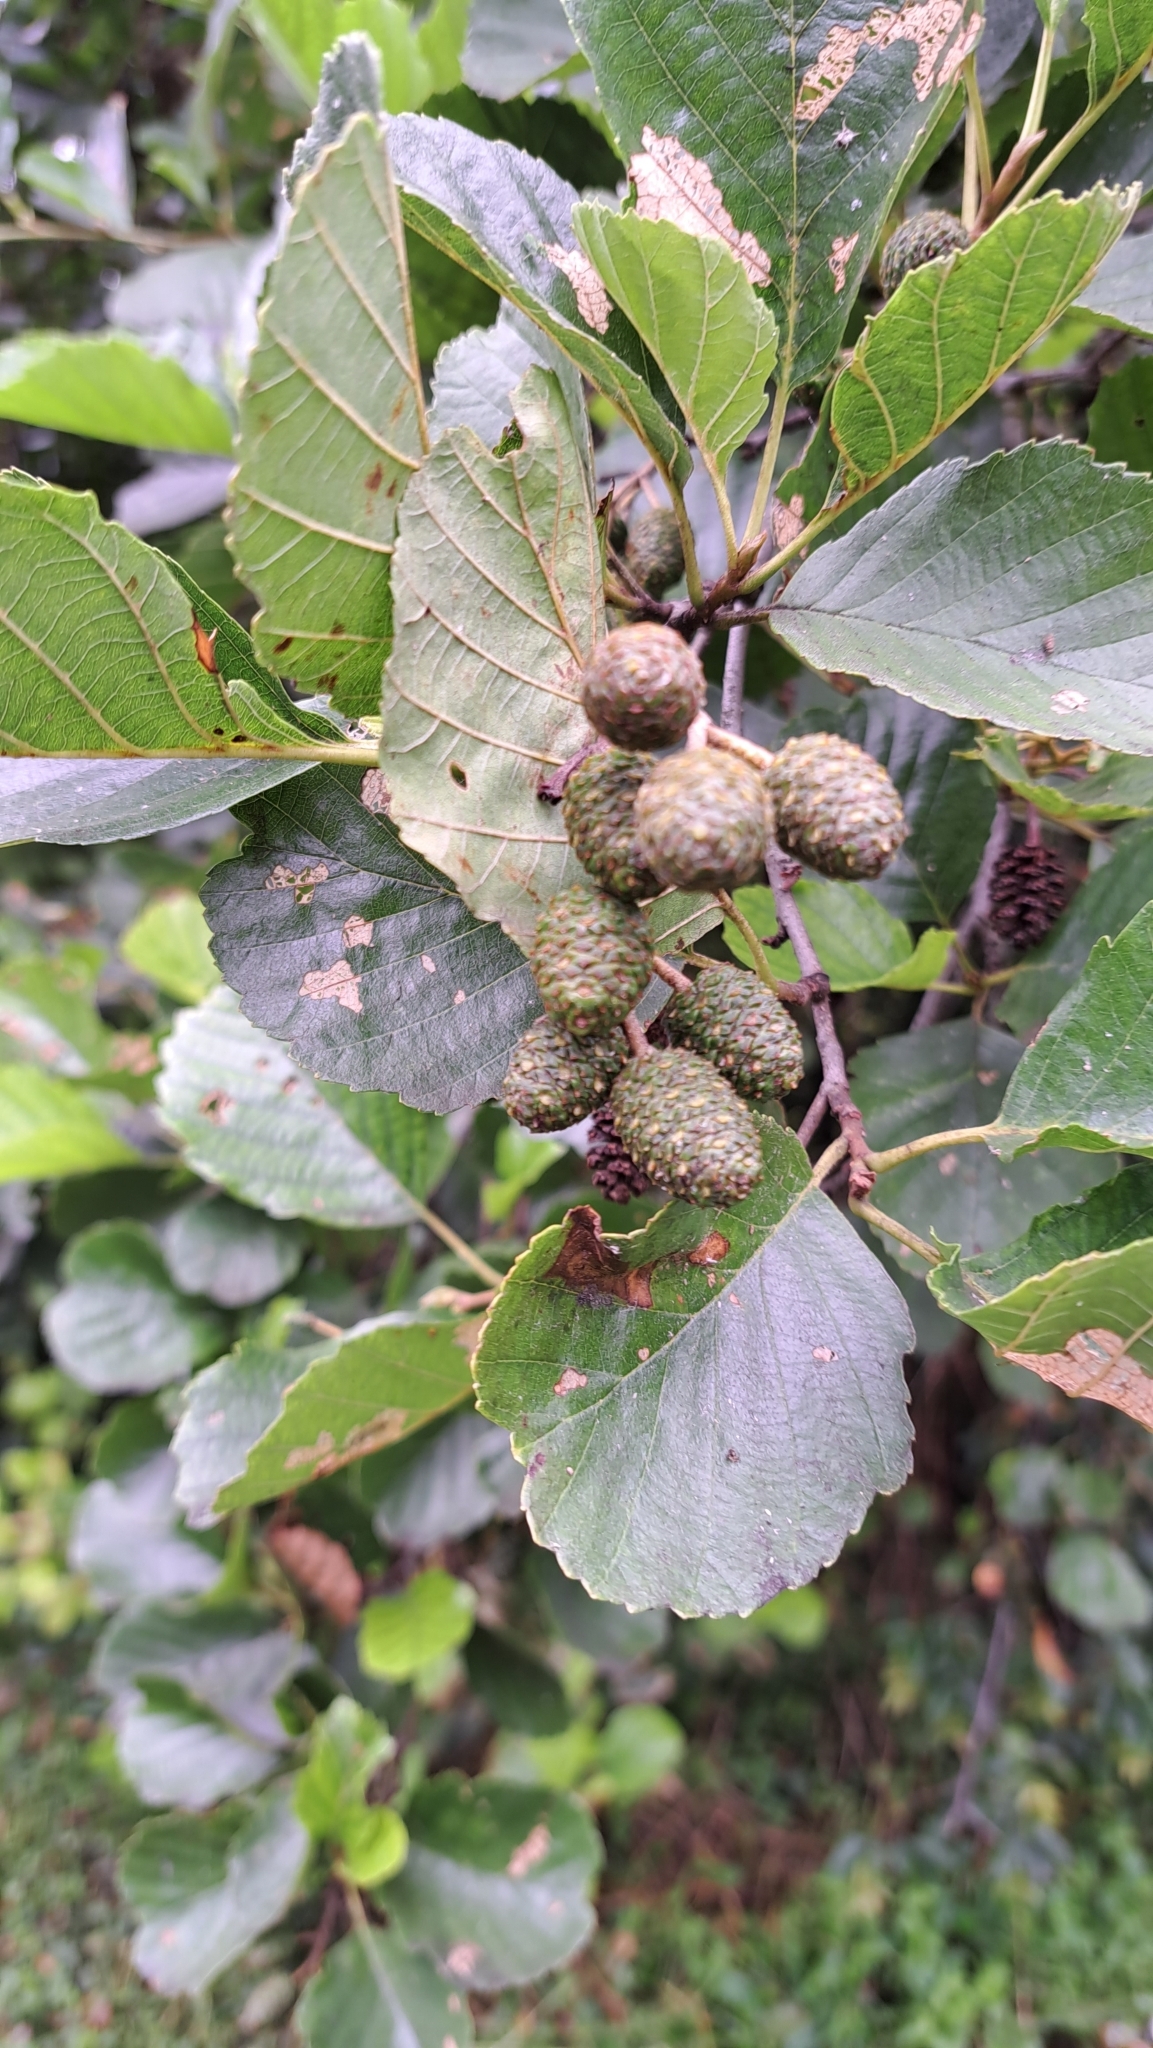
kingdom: Plantae
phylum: Tracheophyta
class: Magnoliopsida
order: Fagales
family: Betulaceae
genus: Alnus
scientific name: Alnus glutinosa
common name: Black alder
